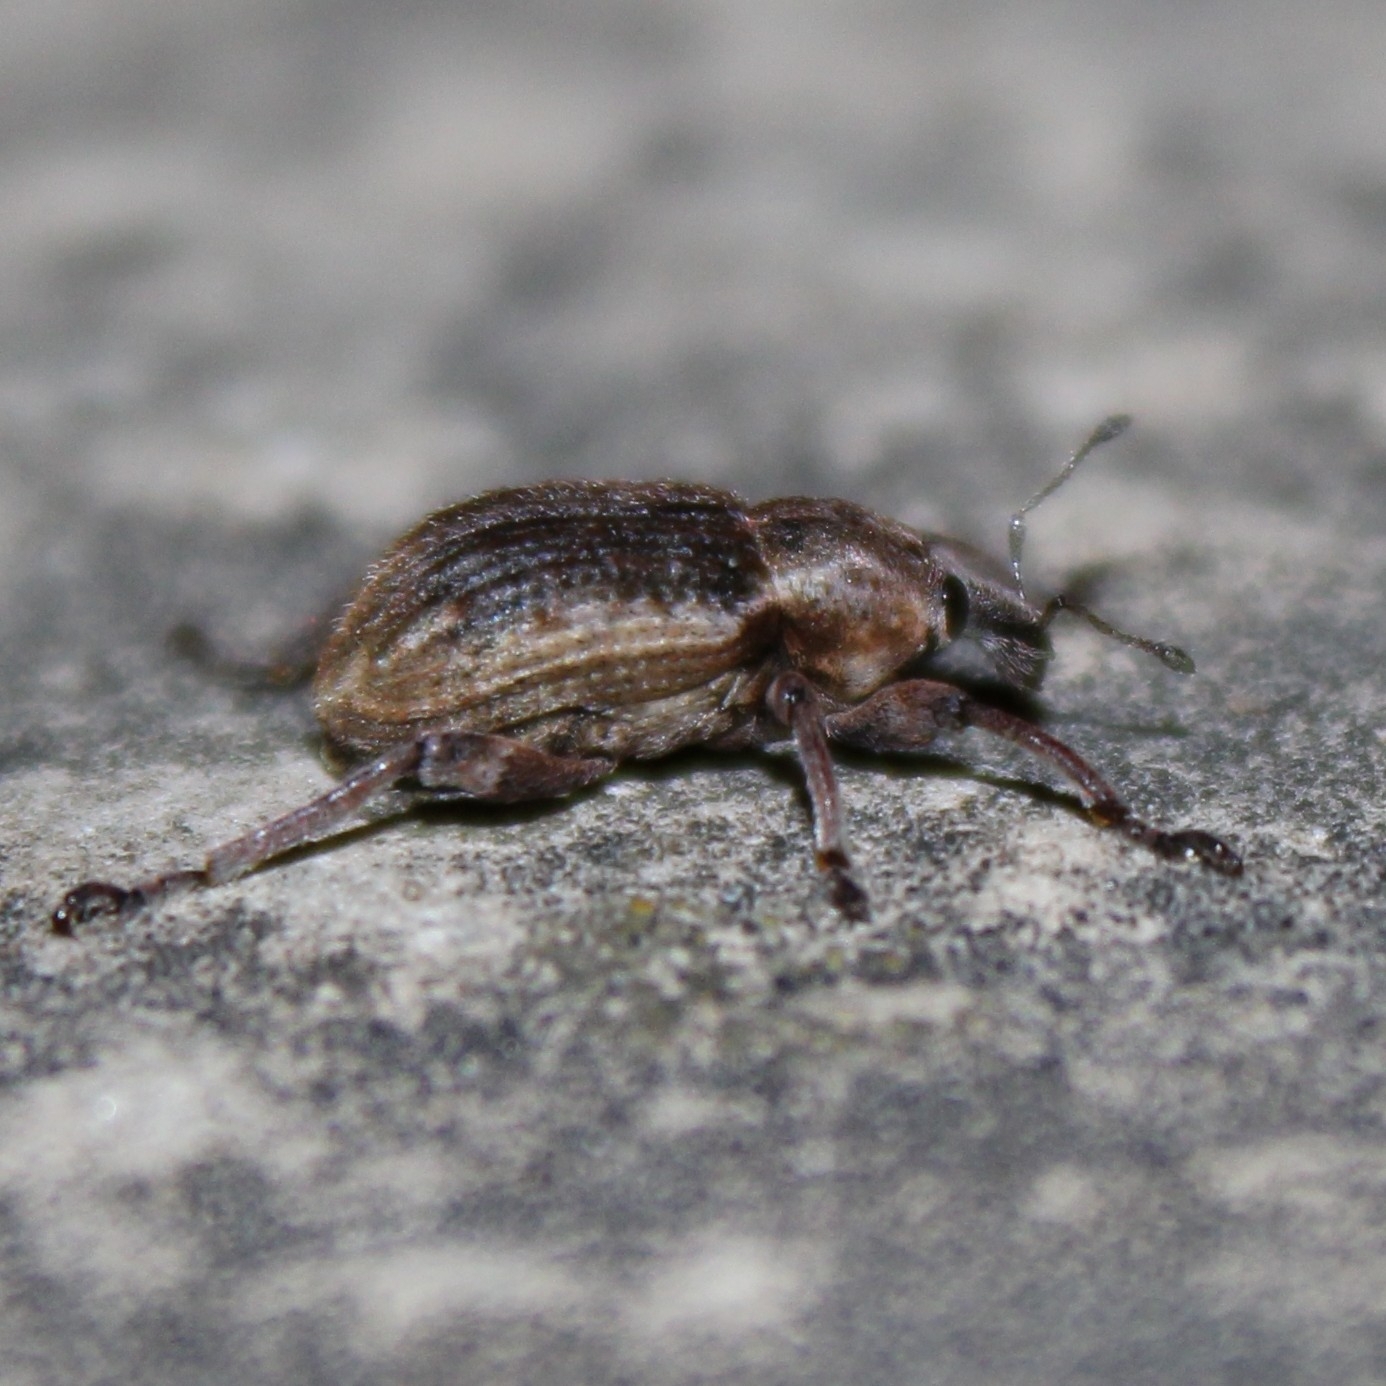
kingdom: Animalia
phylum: Arthropoda
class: Insecta
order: Coleoptera
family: Curculionidae
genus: Brachypera
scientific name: Brachypera zoilus
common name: Clover leaf weevil
